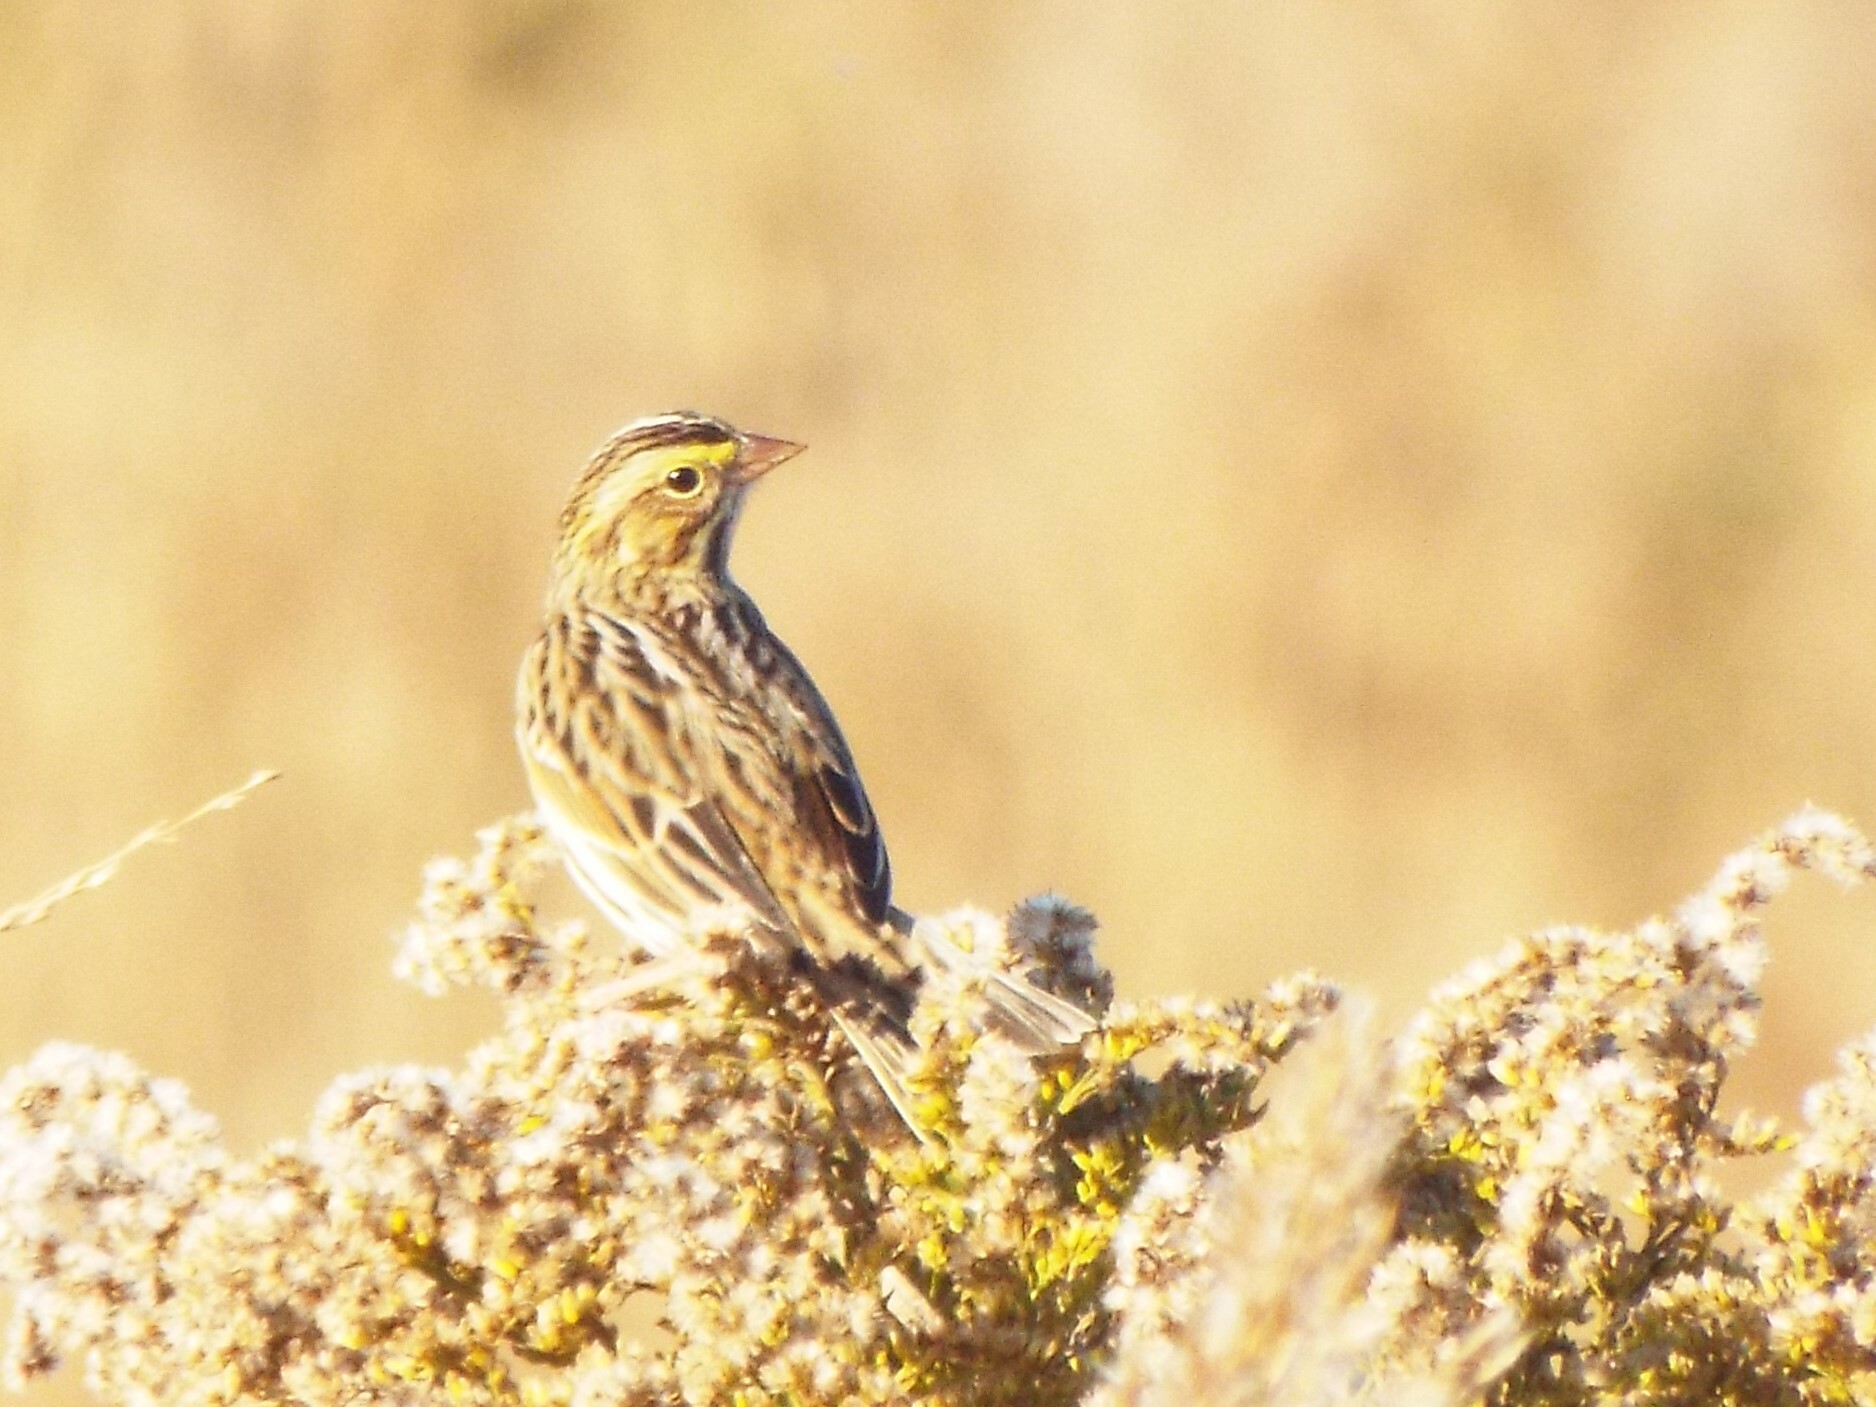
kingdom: Animalia
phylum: Chordata
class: Aves
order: Passeriformes
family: Passerellidae
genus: Passerculus
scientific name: Passerculus sandwichensis
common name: Savannah sparrow
